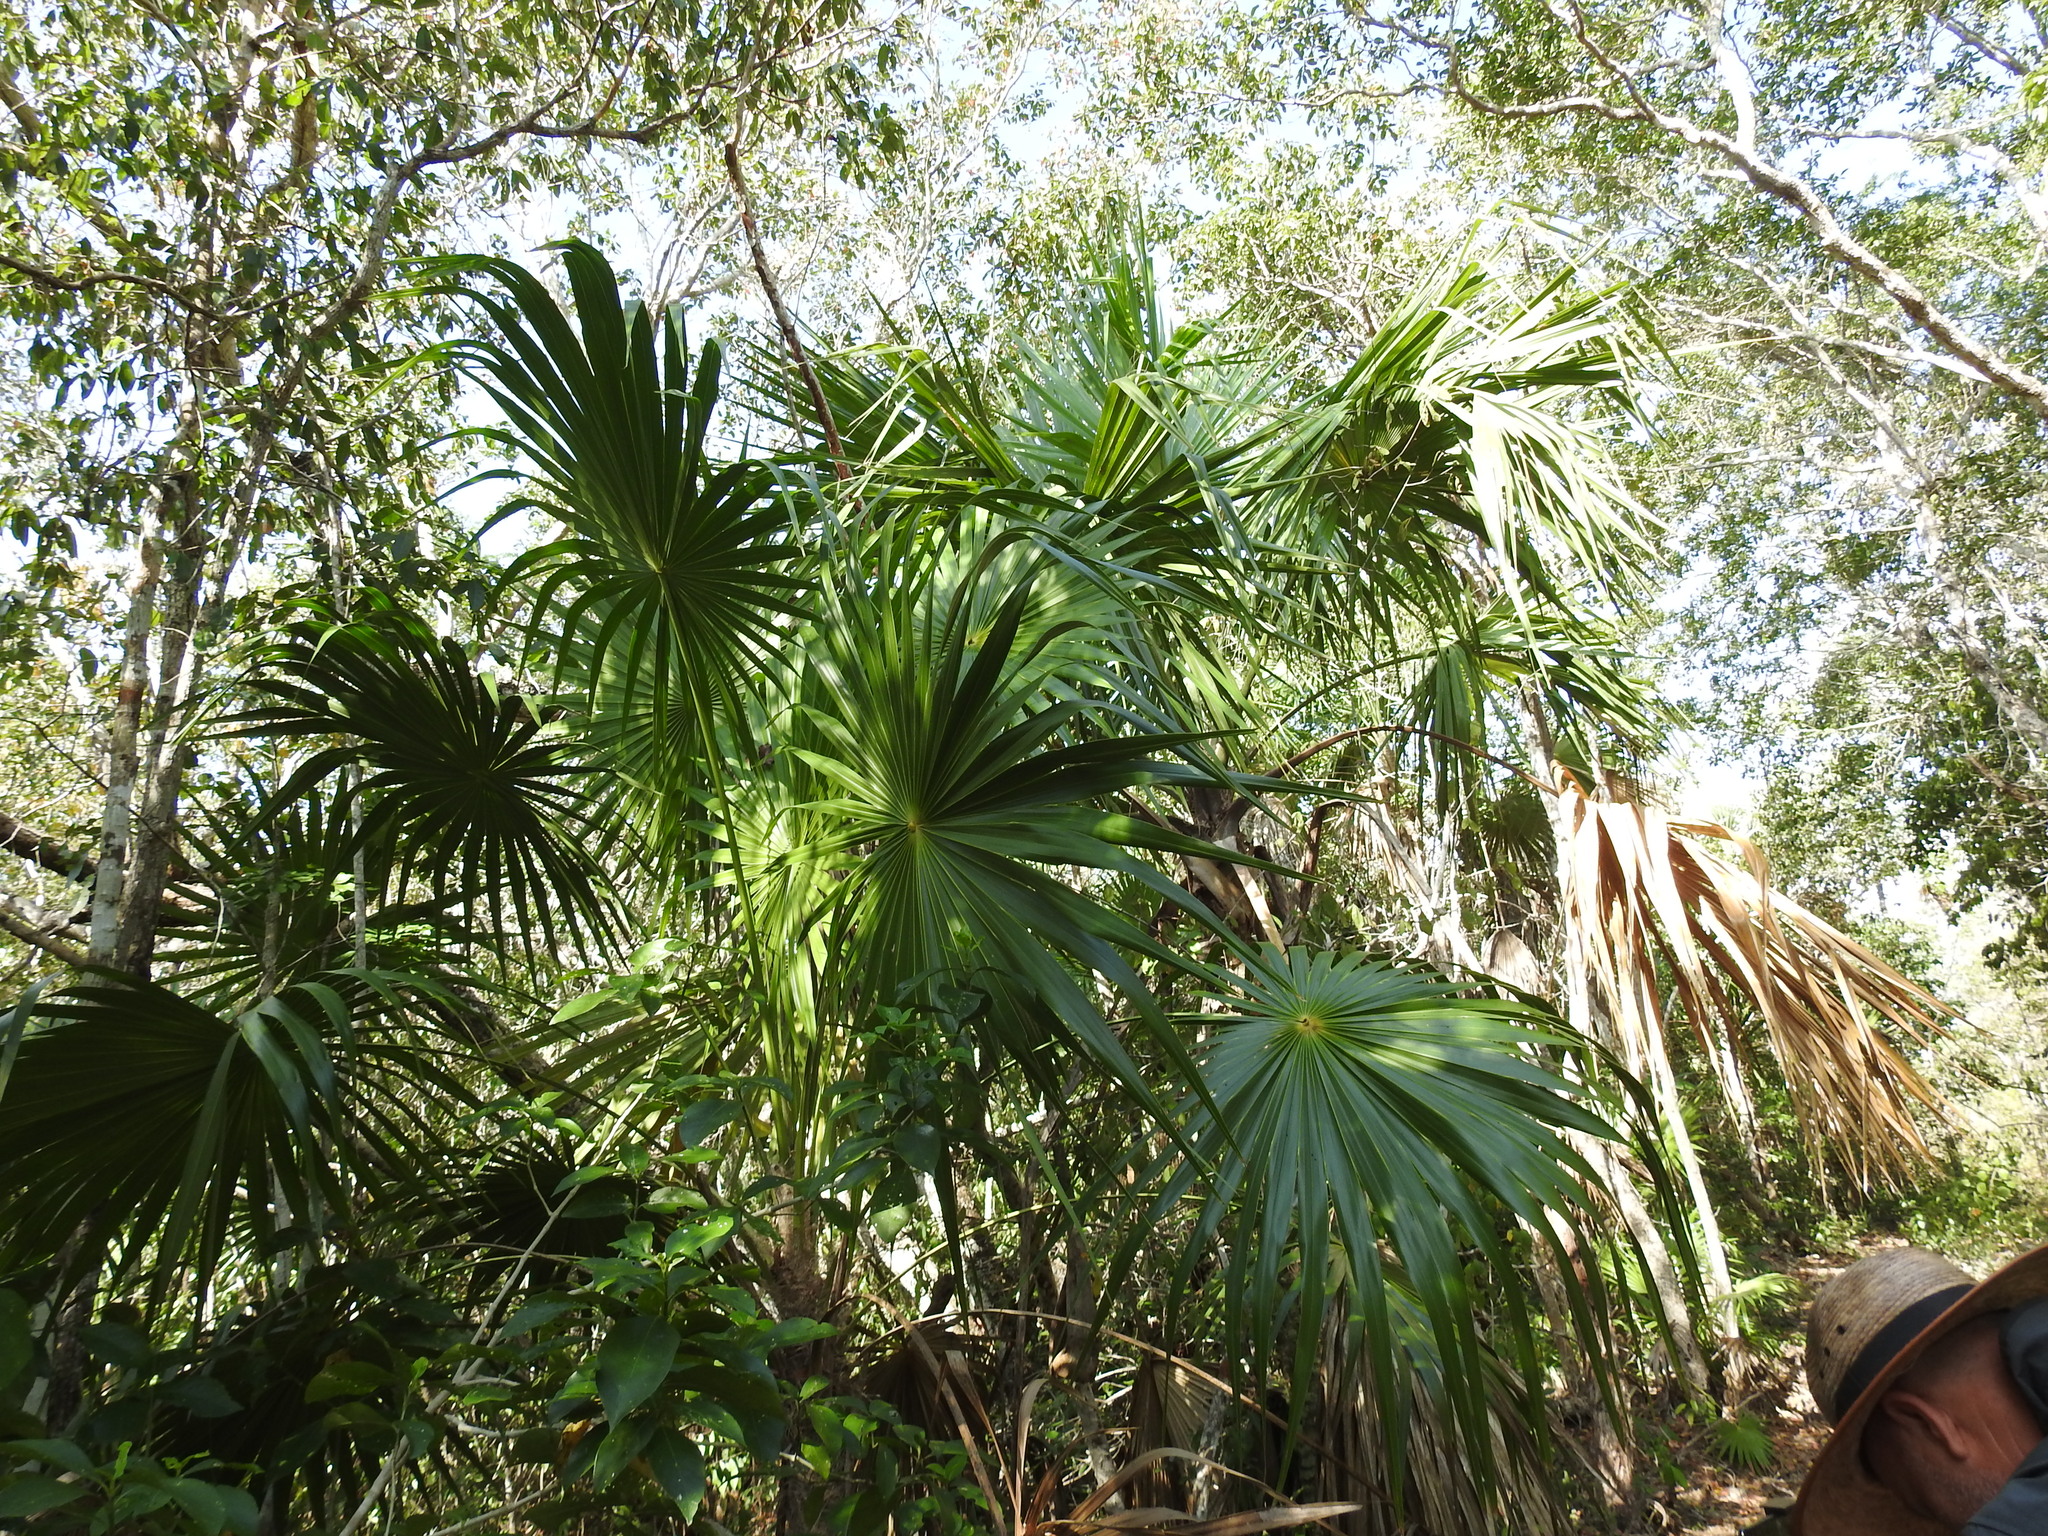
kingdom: Plantae
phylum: Tracheophyta
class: Liliopsida
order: Arecales
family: Arecaceae
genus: Thrinax
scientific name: Thrinax radiata
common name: Florida thatch
